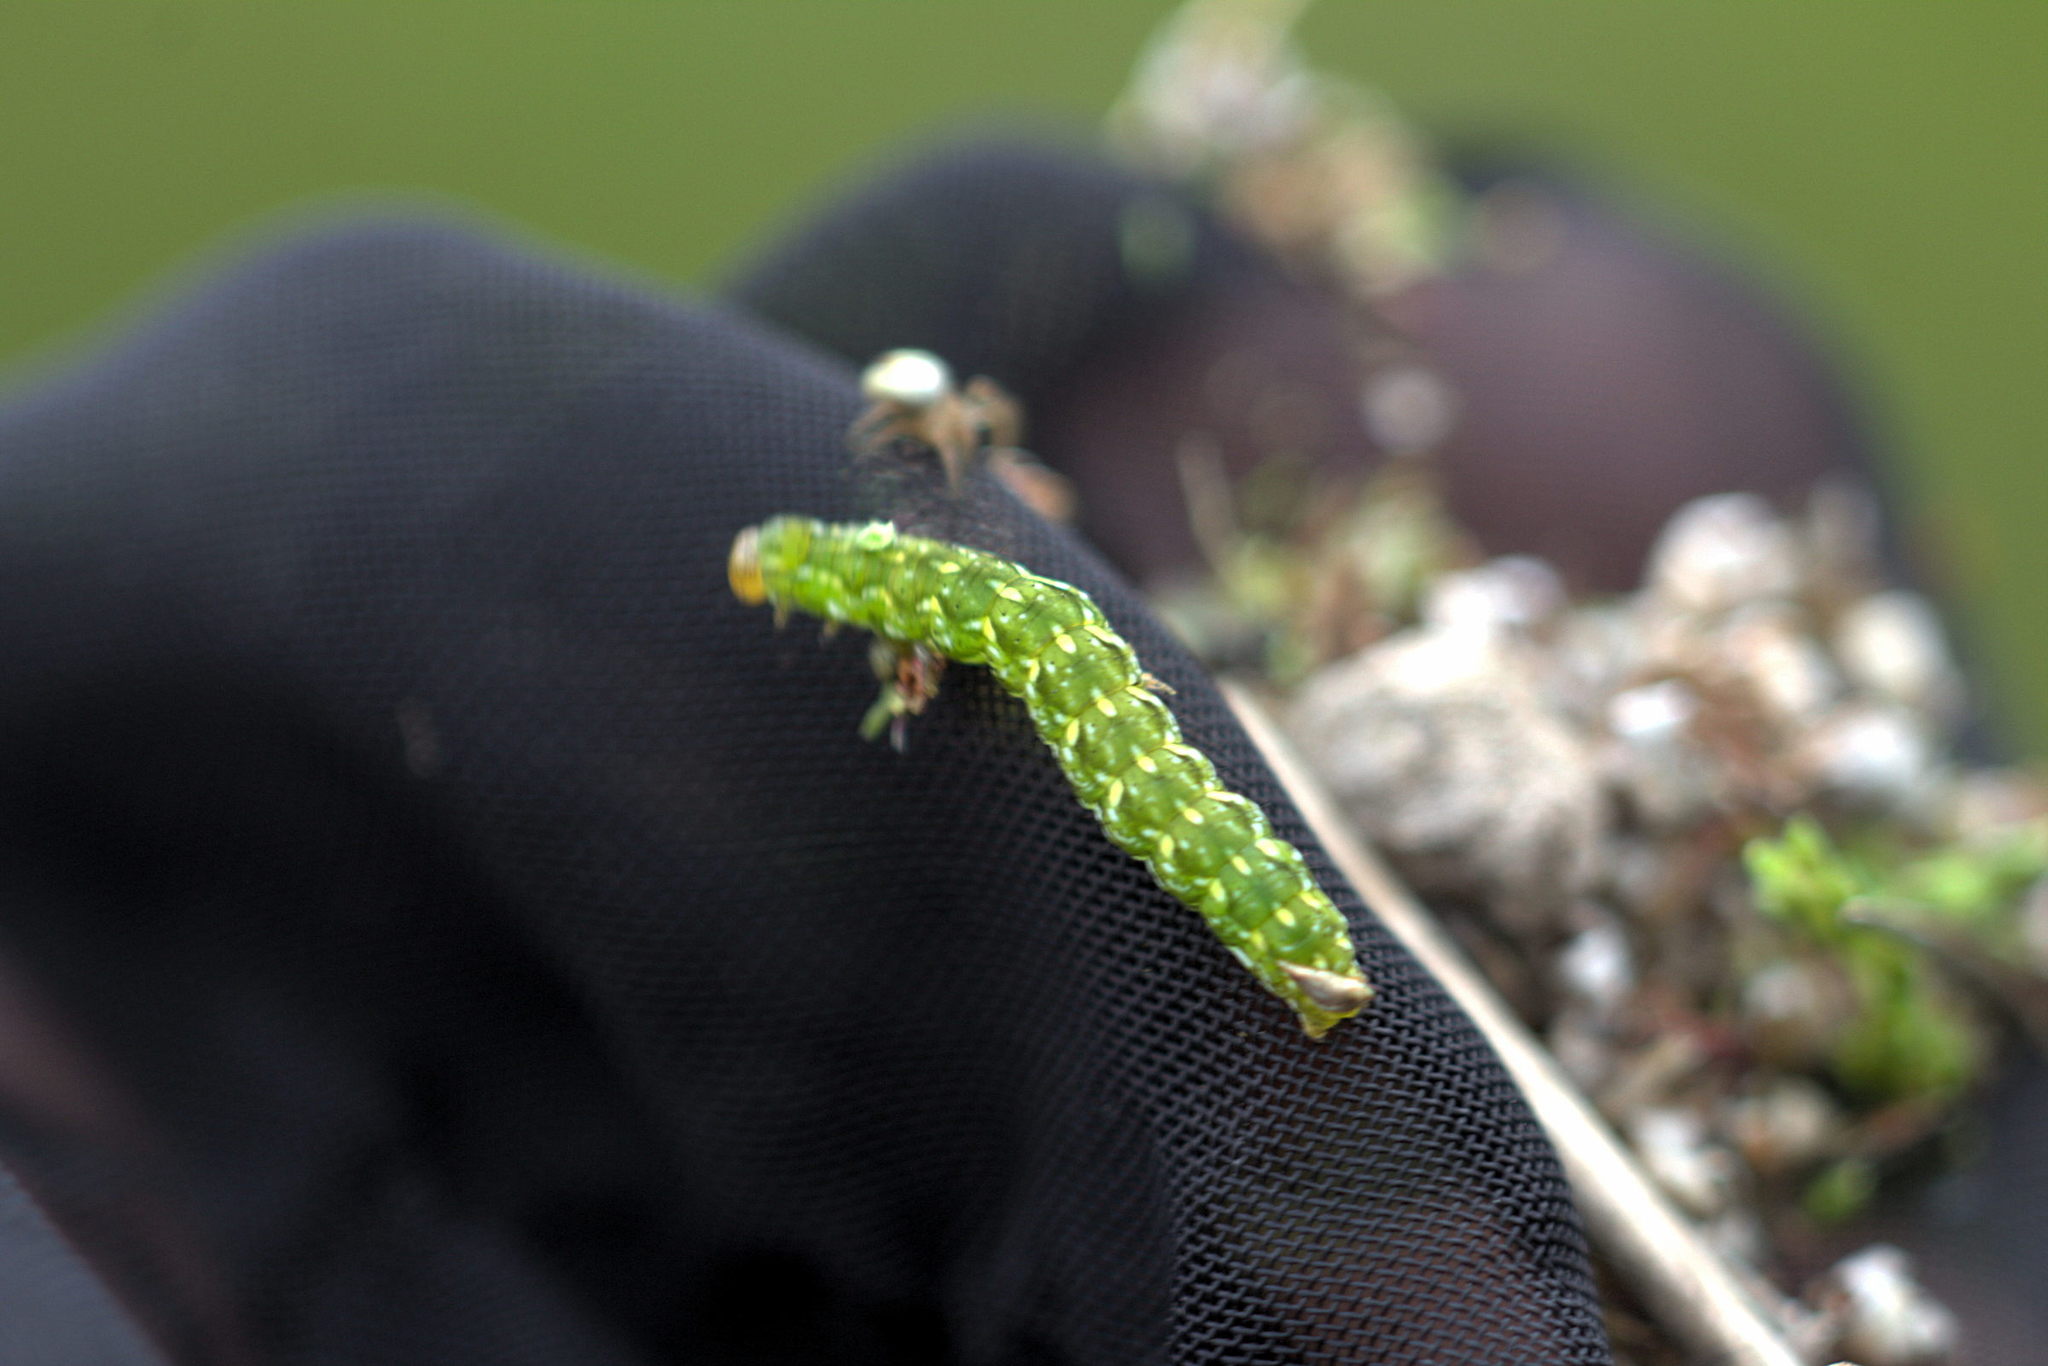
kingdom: Animalia
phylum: Arthropoda
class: Insecta
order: Lepidoptera
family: Noctuidae
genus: Anarta
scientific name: Anarta myrtilli
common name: Beautiful yellow underwing
